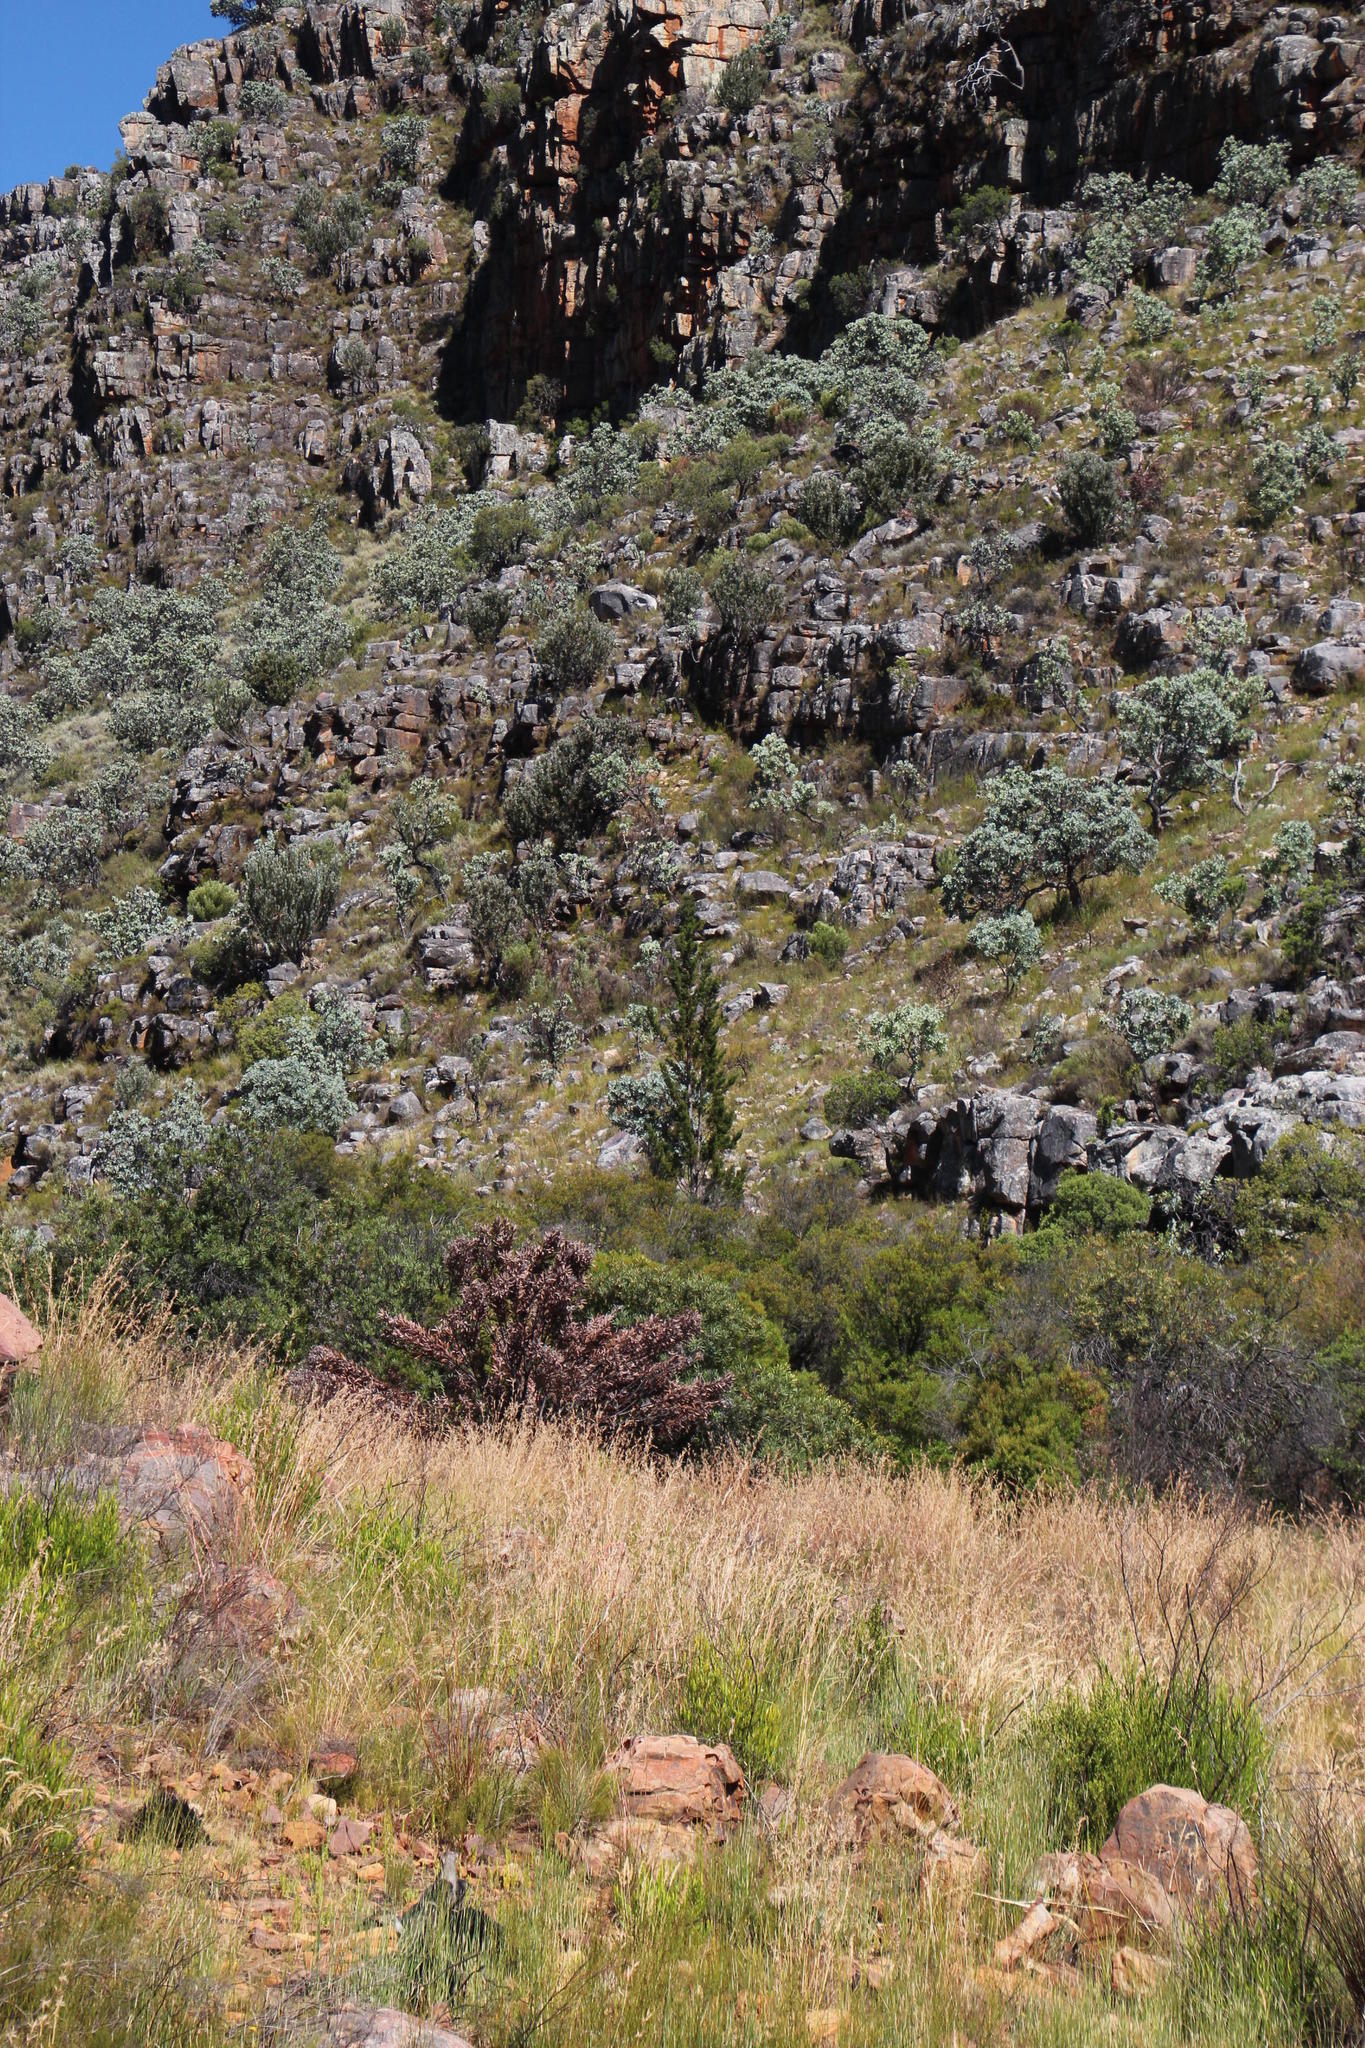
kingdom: Plantae
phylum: Tracheophyta
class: Pinopsida
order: Pinales
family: Cupressaceae
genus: Widdringtonia
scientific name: Widdringtonia nodiflora
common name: Cape cypress
